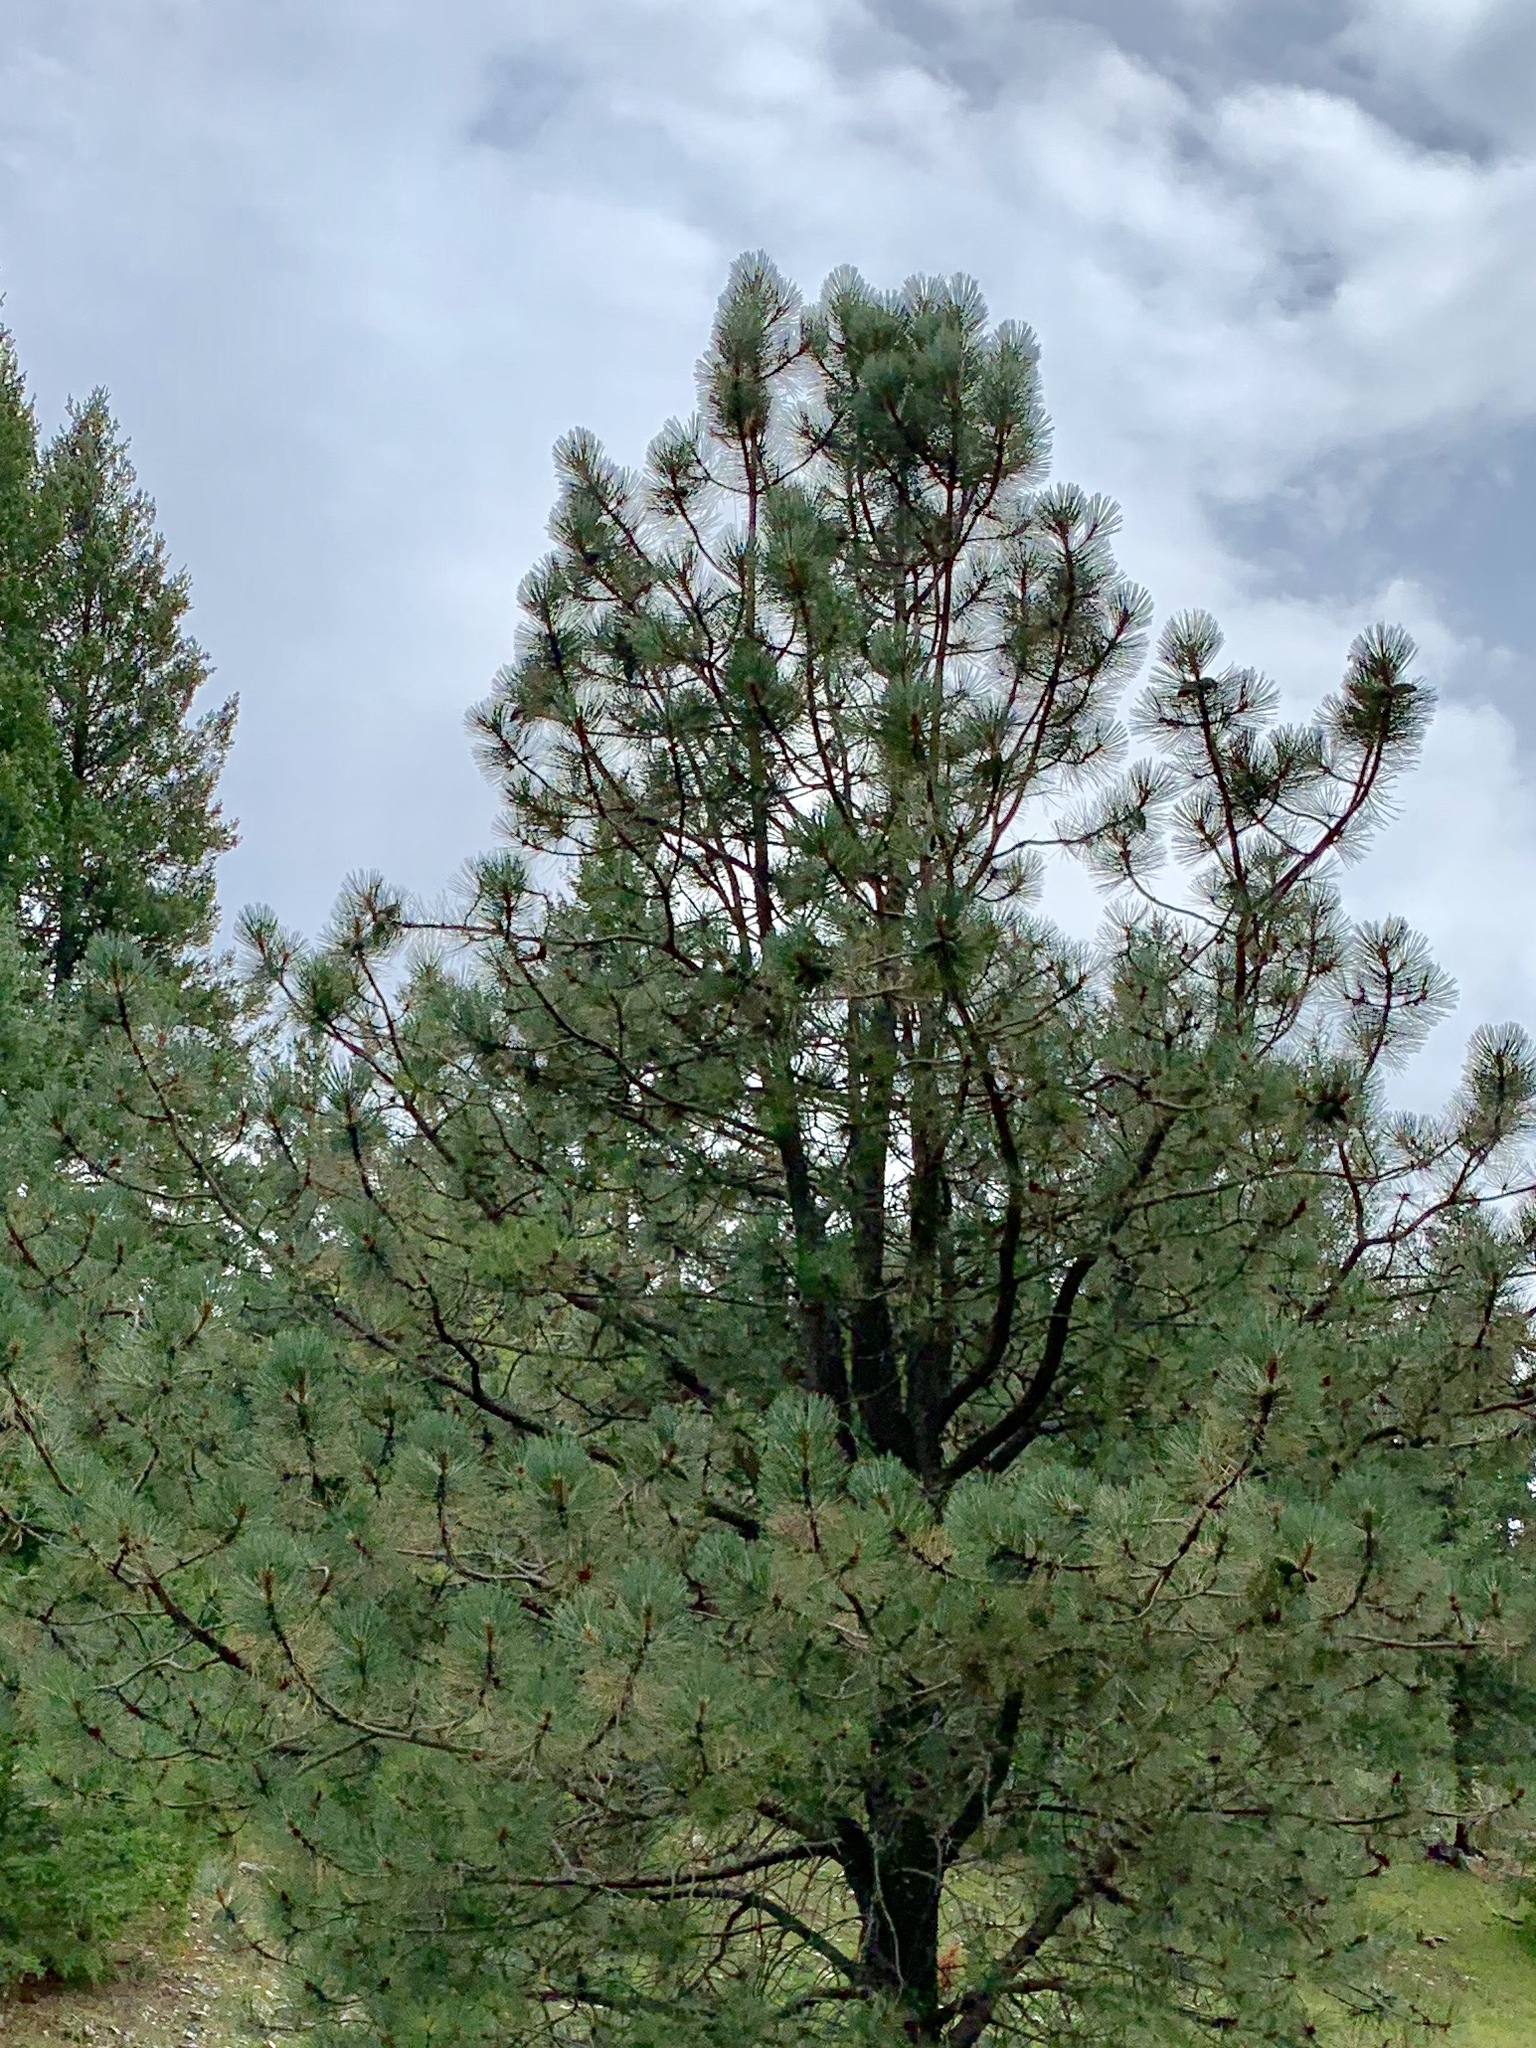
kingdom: Plantae
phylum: Tracheophyta
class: Pinopsida
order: Pinales
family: Pinaceae
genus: Pinus
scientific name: Pinus ponderosa
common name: Western yellow-pine
